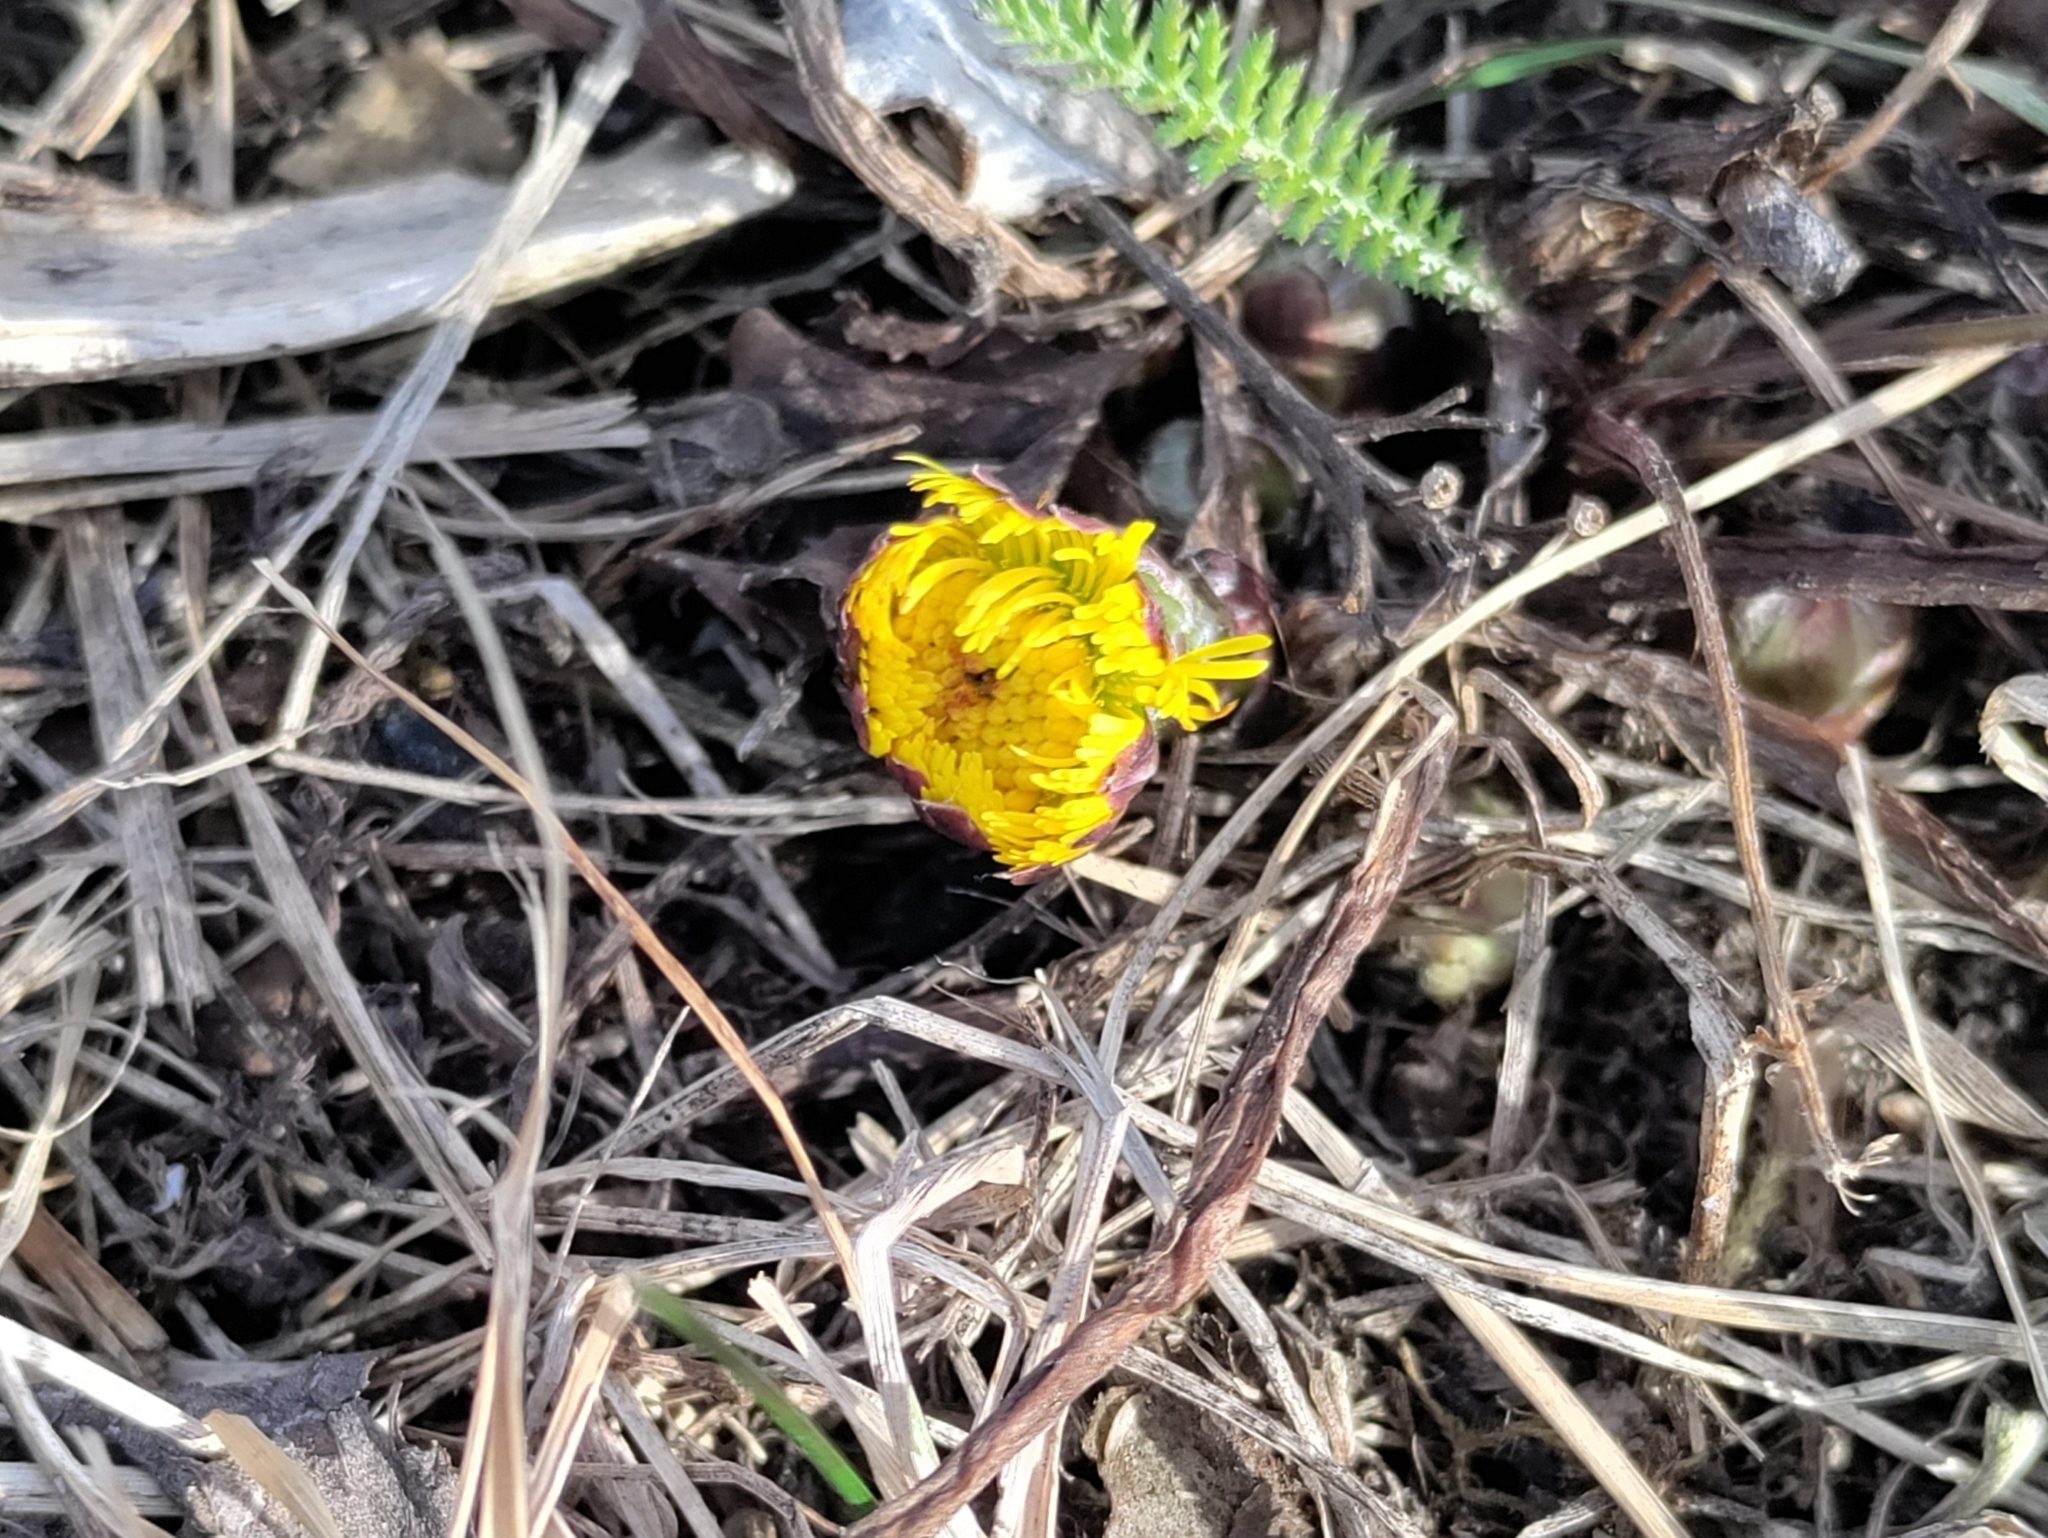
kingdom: Plantae
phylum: Tracheophyta
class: Magnoliopsida
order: Asterales
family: Asteraceae
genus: Tussilago
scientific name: Tussilago farfara
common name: Coltsfoot
